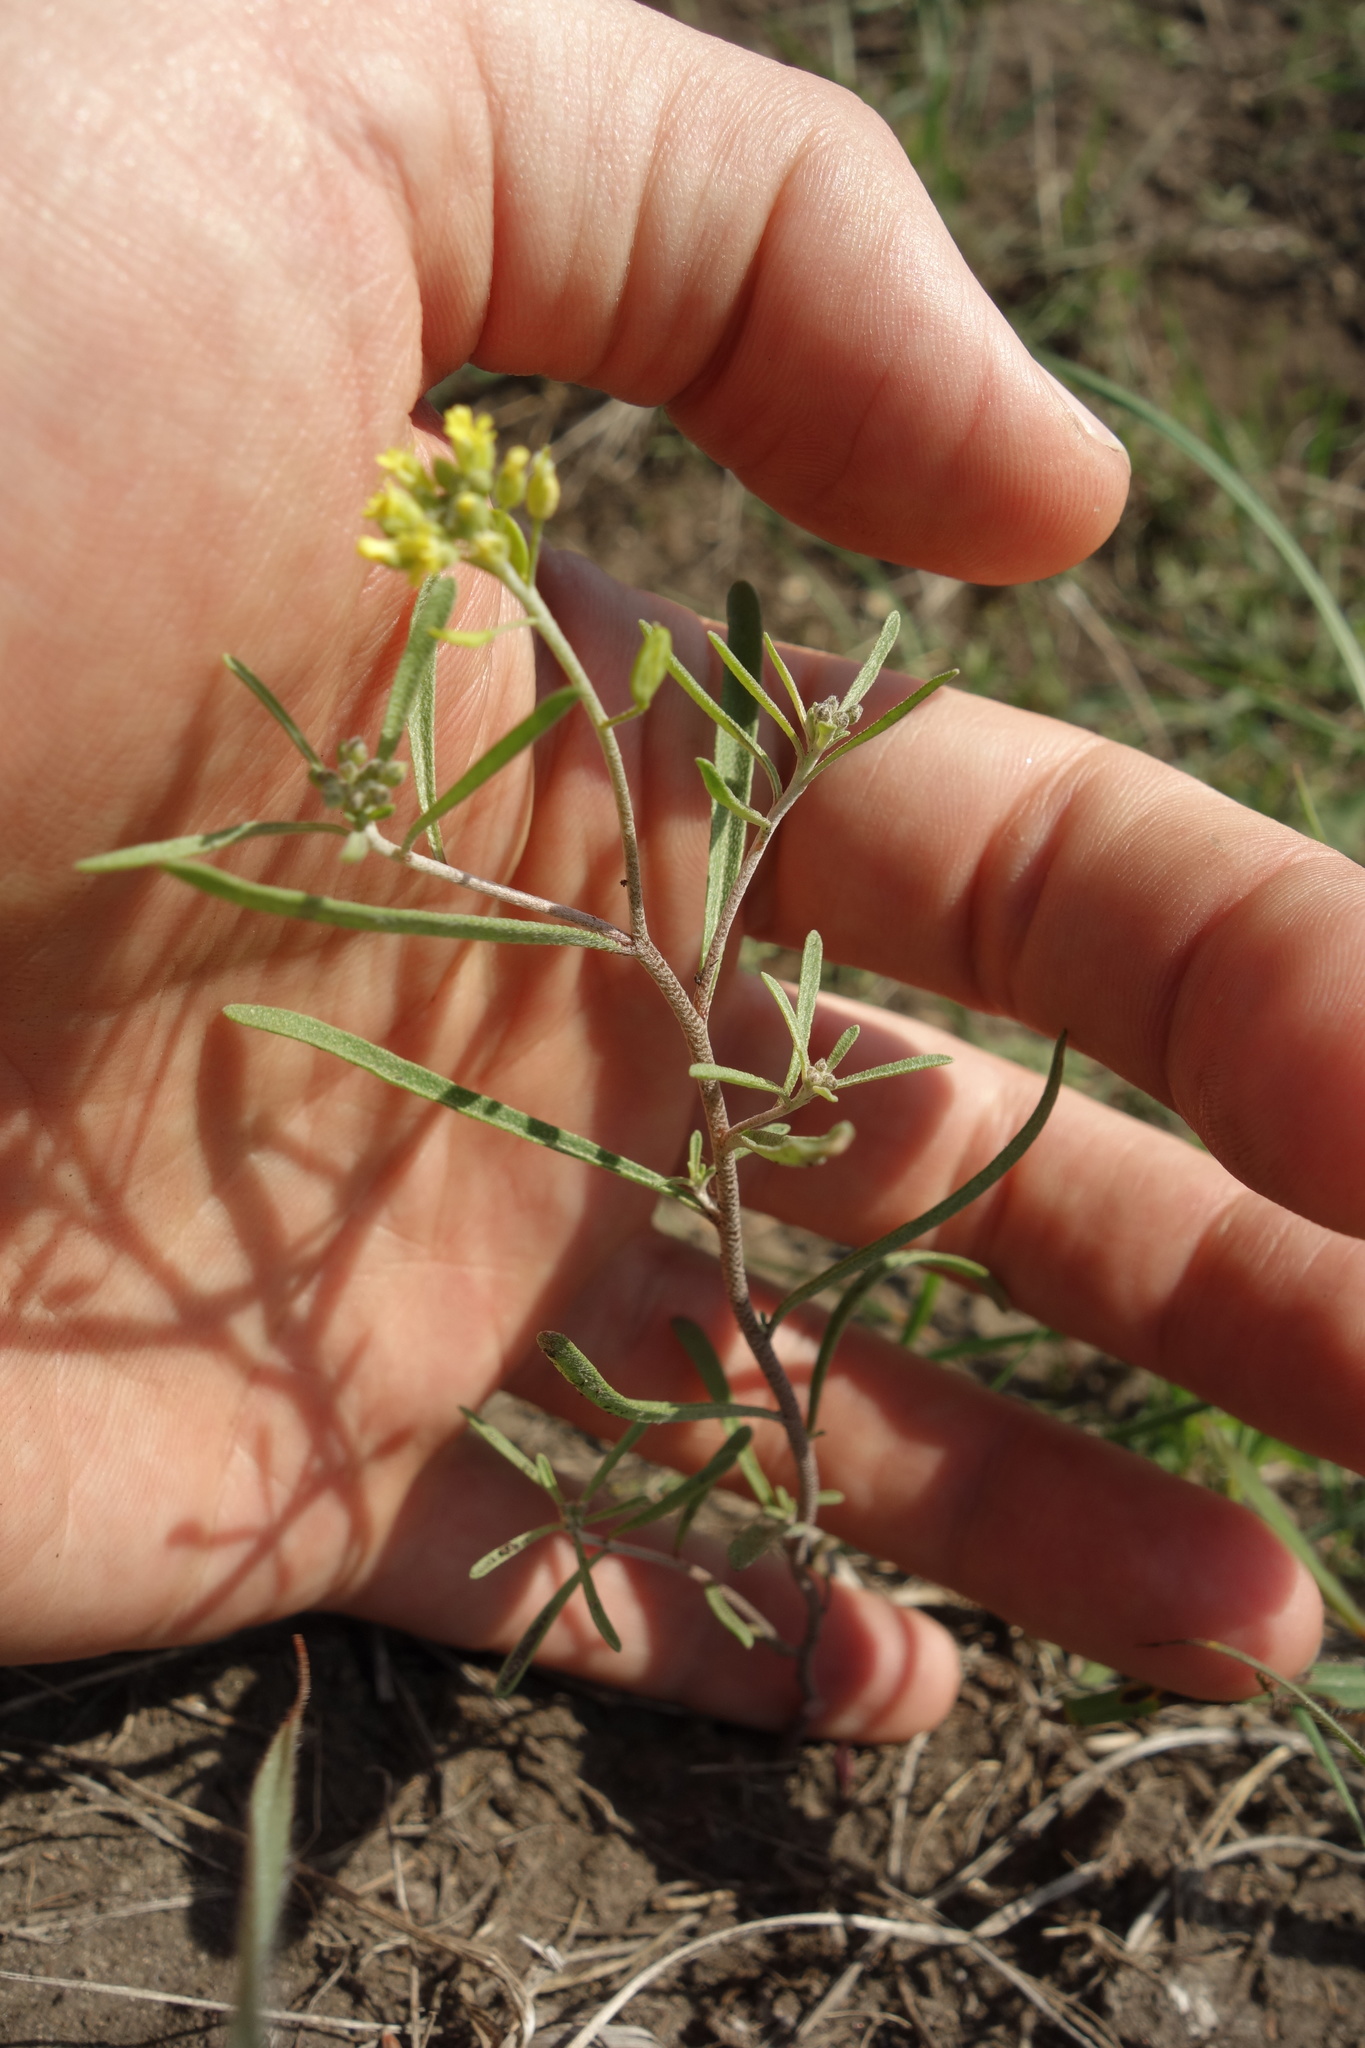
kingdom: Plantae
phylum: Tracheophyta
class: Magnoliopsida
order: Brassicales
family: Brassicaceae
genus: Meniocus
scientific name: Meniocus linifolius
